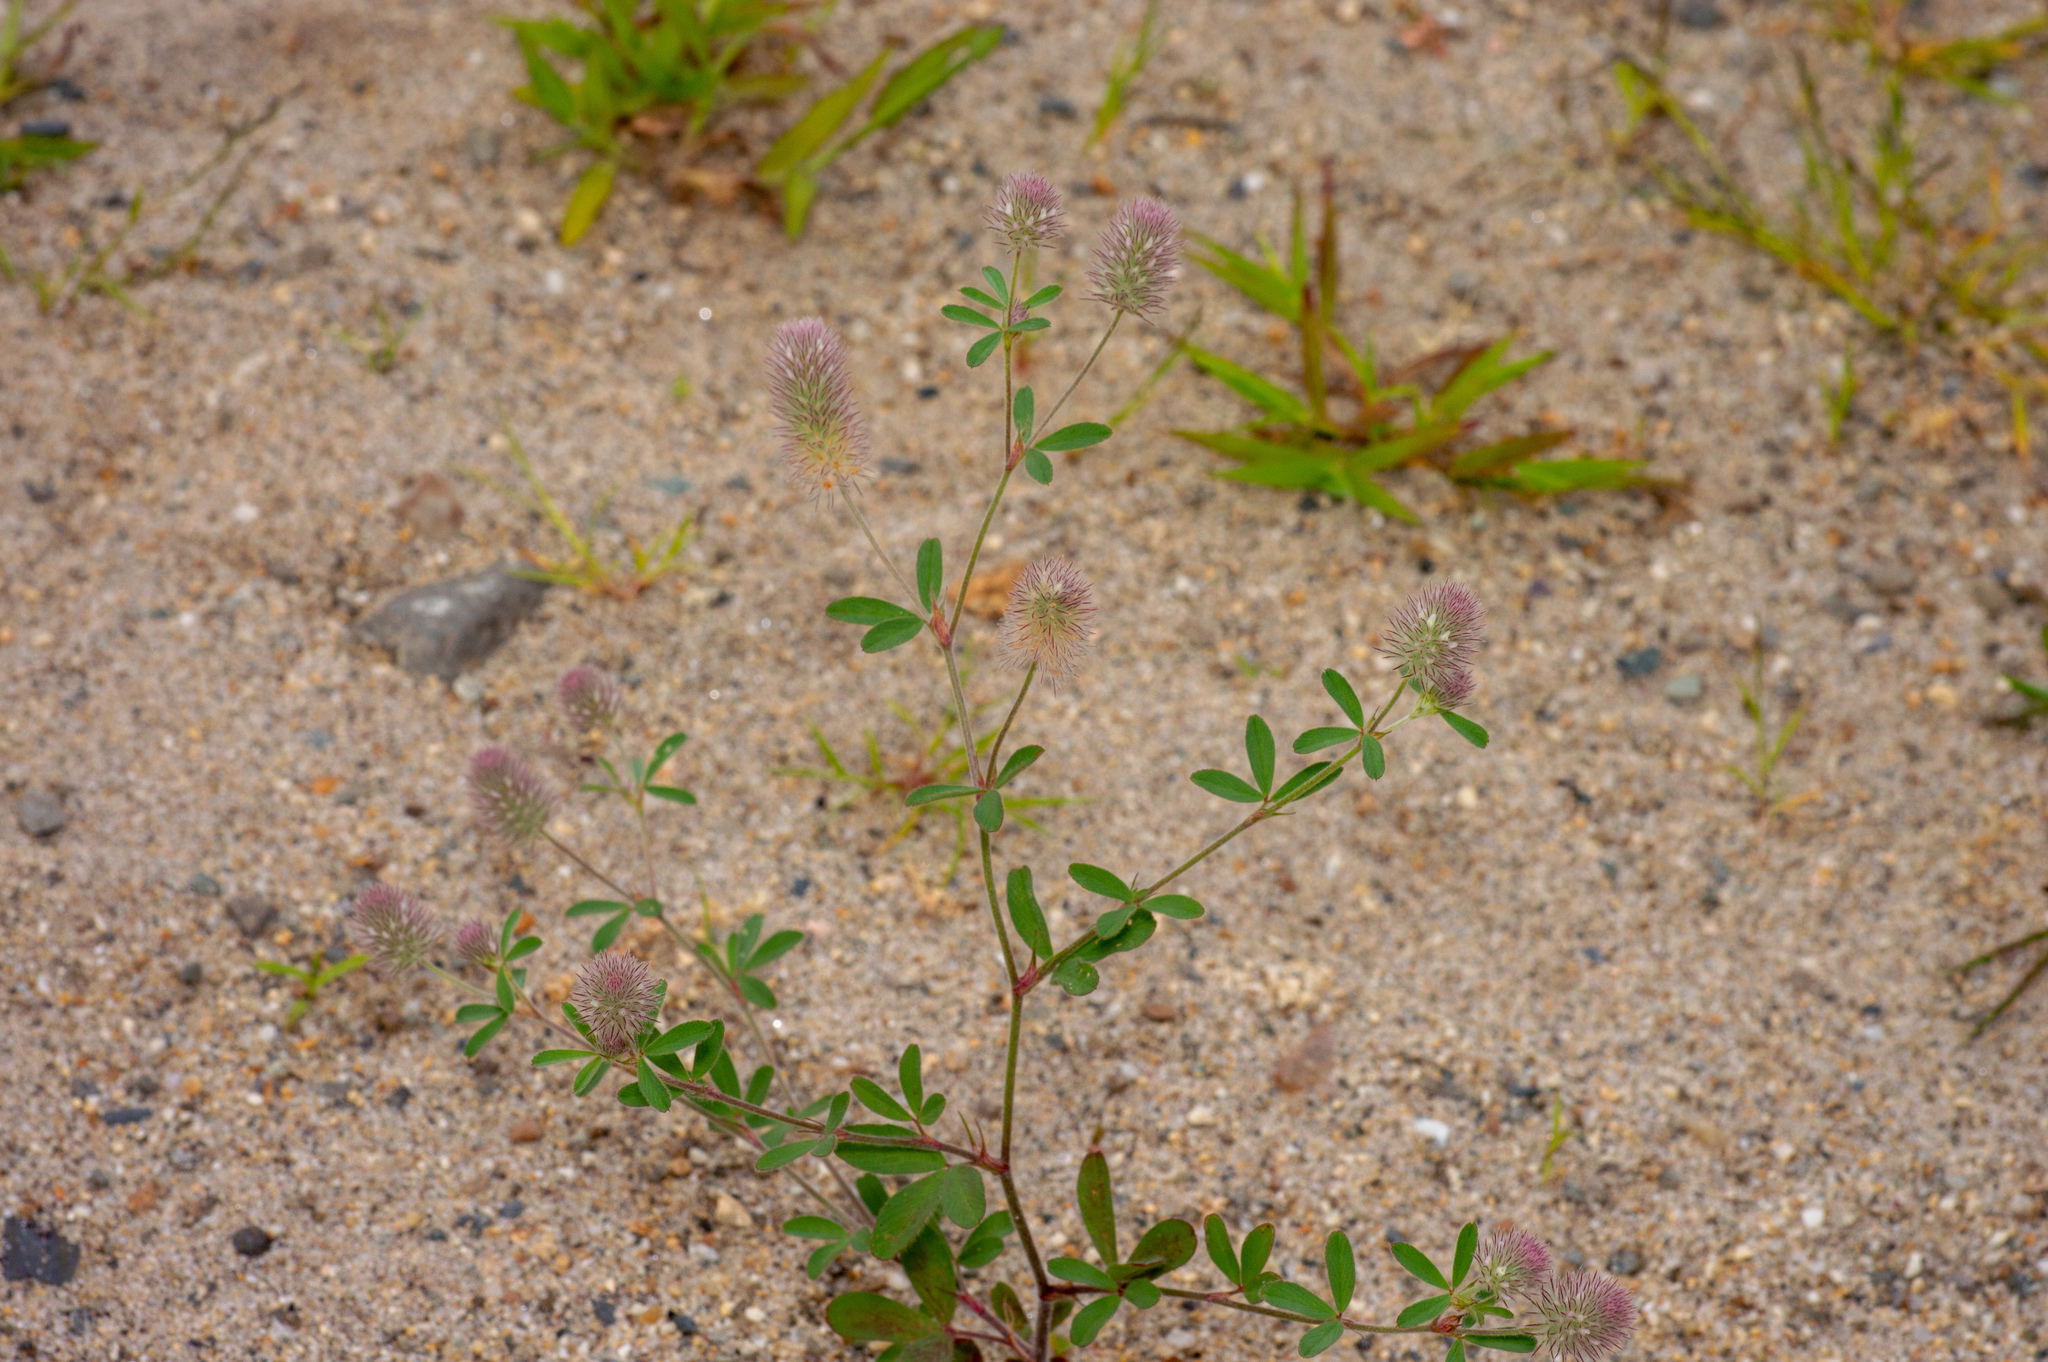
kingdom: Plantae
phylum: Tracheophyta
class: Magnoliopsida
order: Fabales
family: Fabaceae
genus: Trifolium
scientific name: Trifolium arvense
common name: Hare's-foot clover
